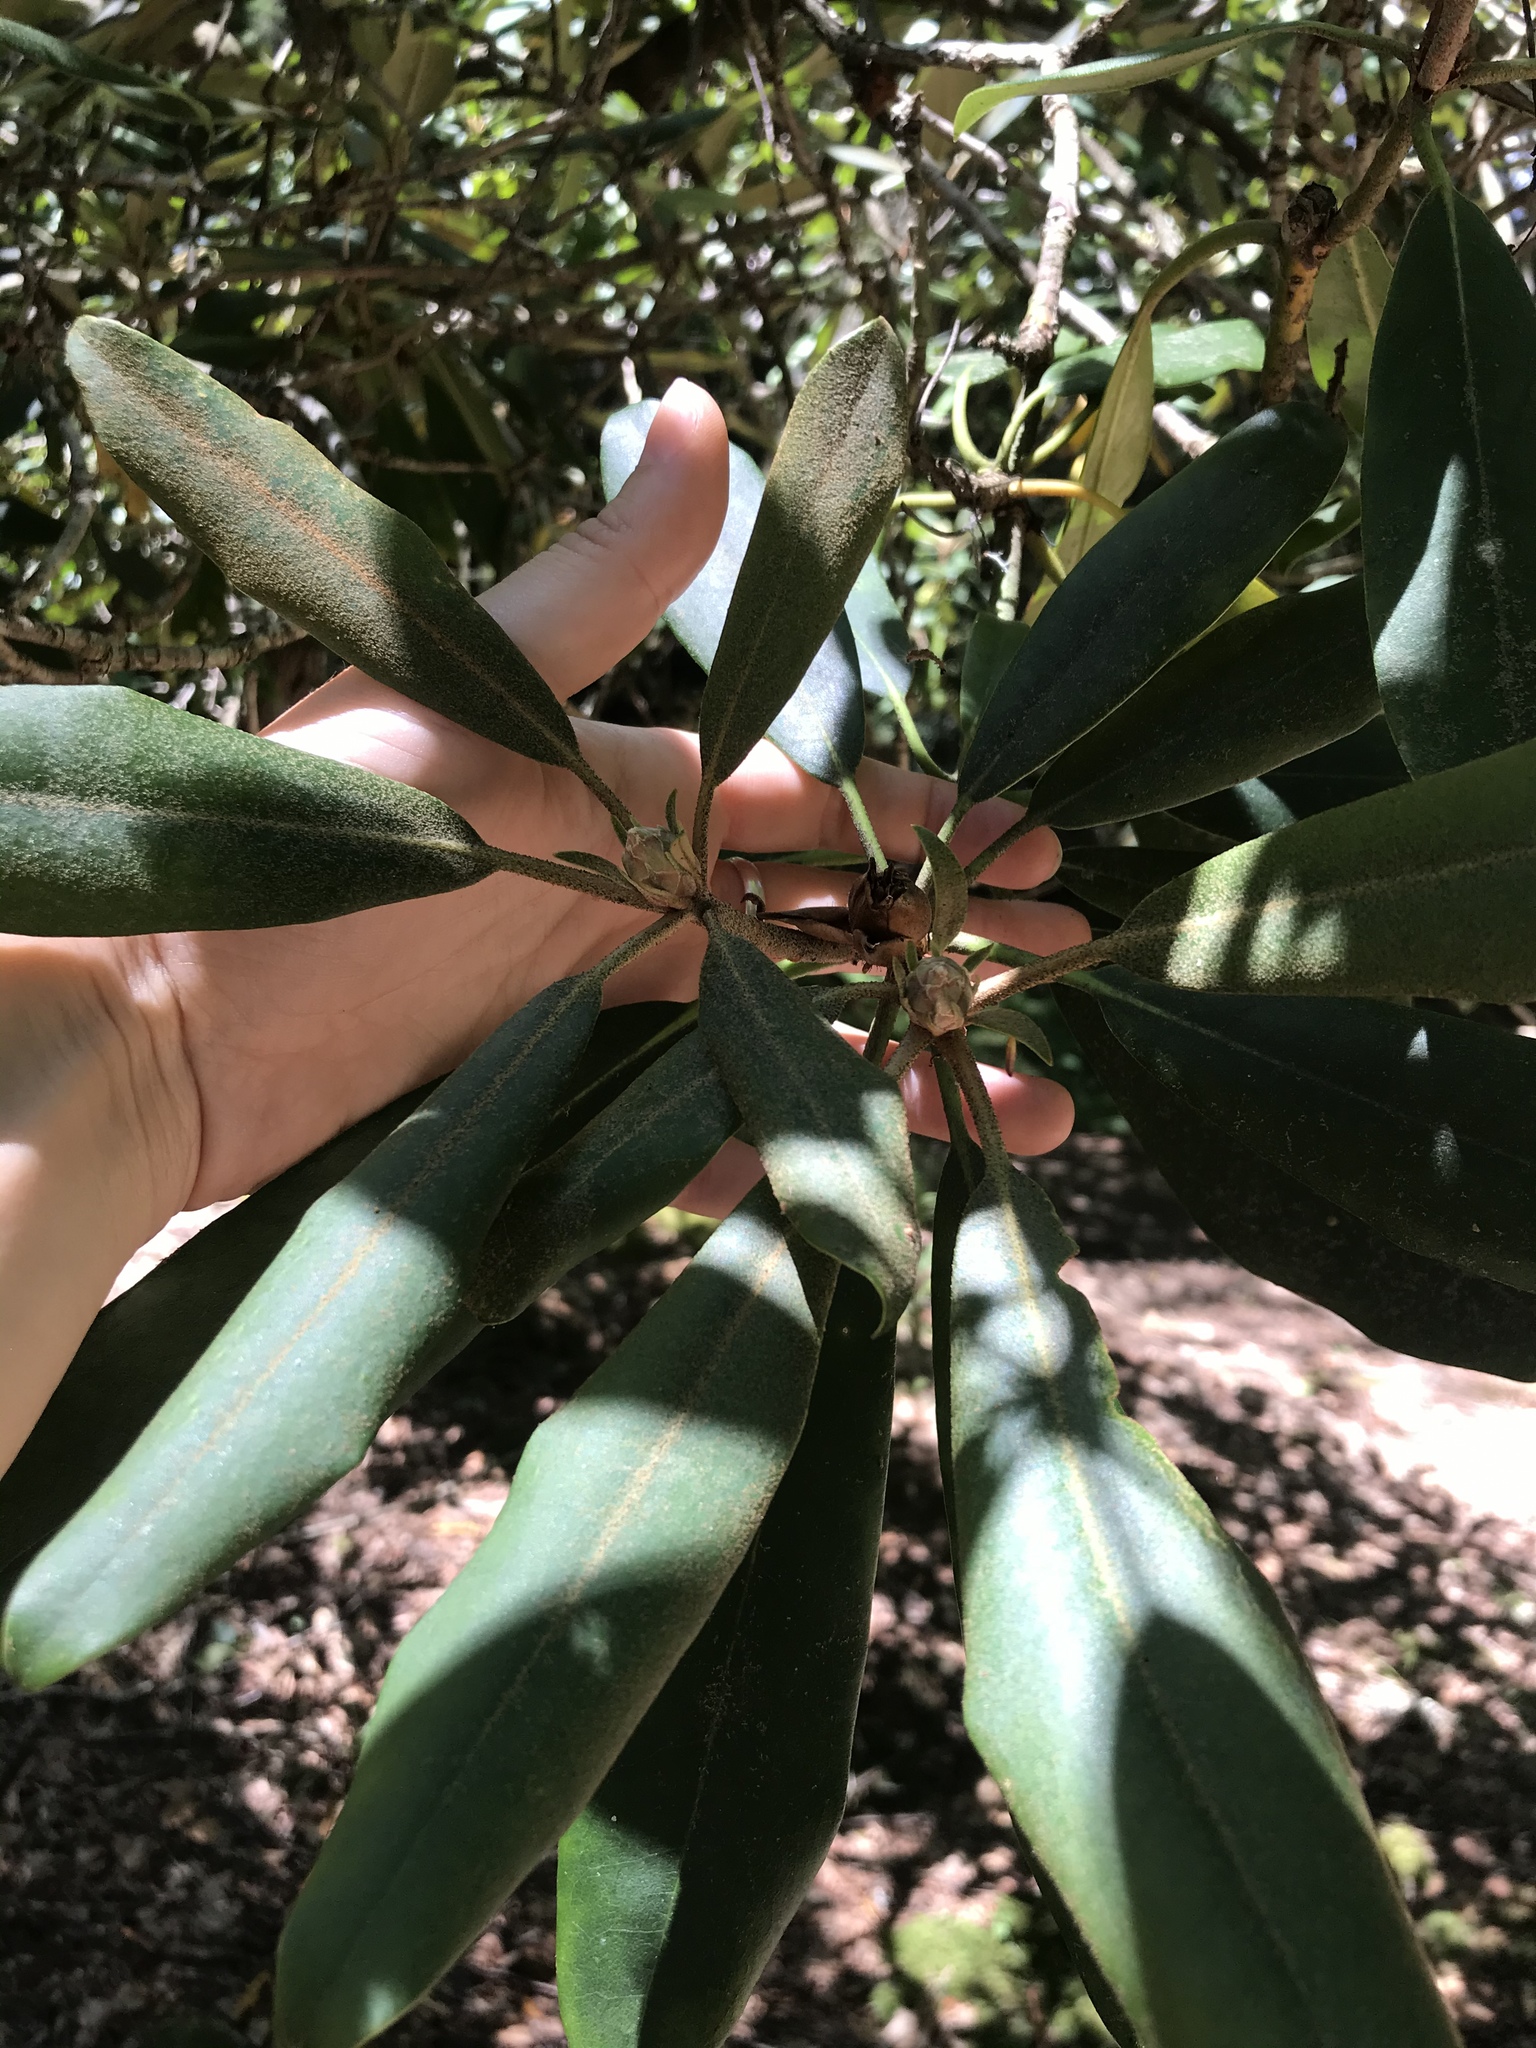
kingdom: Plantae
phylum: Tracheophyta
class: Magnoliopsida
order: Ericales
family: Ericaceae
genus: Rhododendron
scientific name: Rhododendron maximum
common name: Great rhododendron
